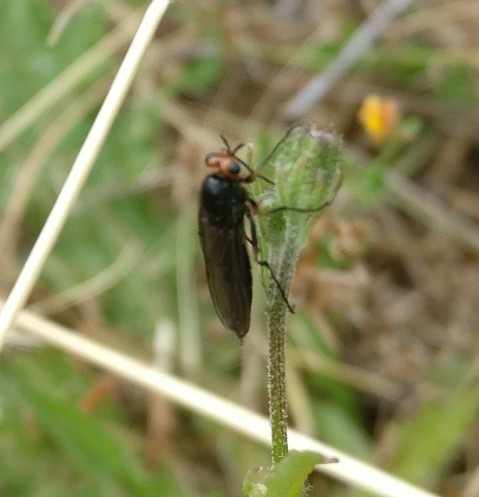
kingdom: Animalia
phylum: Arthropoda
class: Insecta
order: Diptera
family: Stratiomyidae
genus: Inopus
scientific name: Inopus rubriceps
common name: Soldier fly
